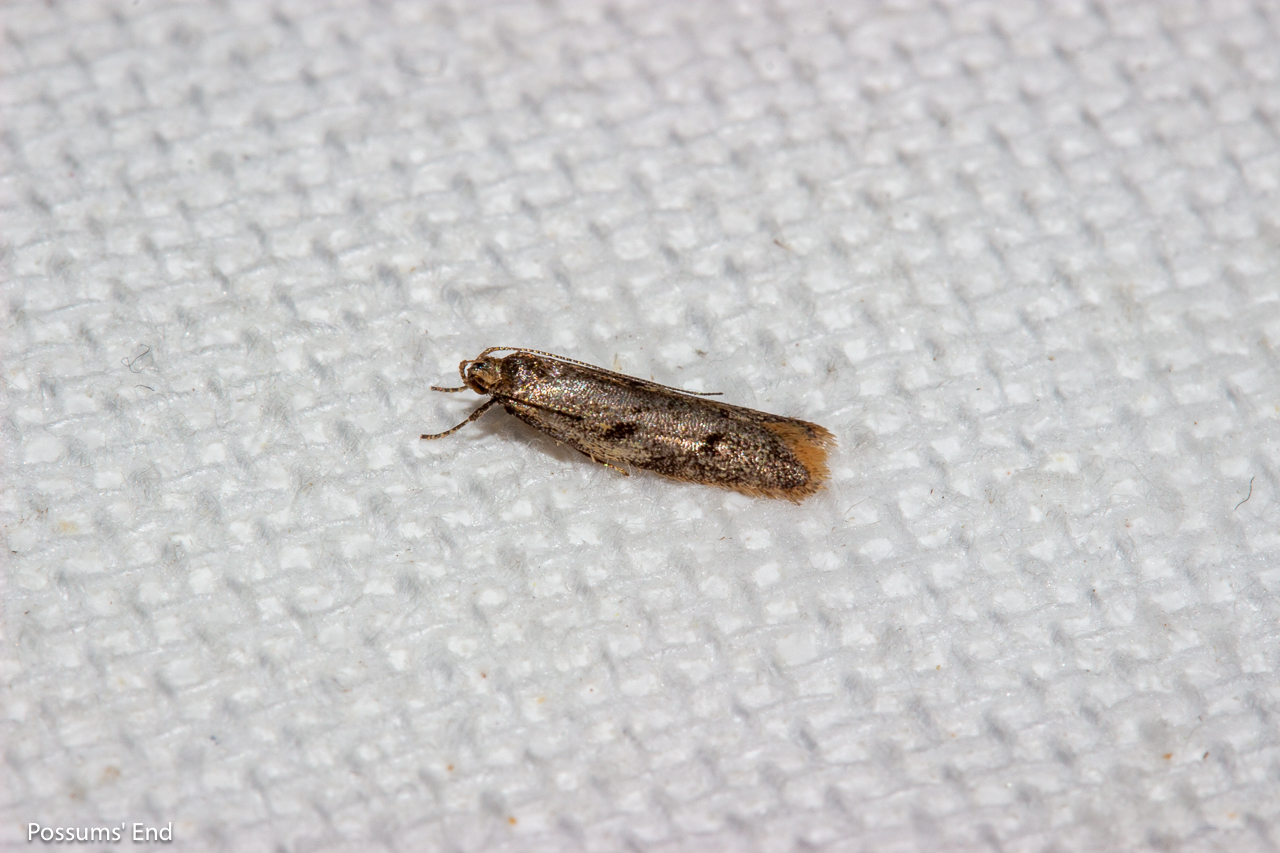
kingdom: Animalia
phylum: Arthropoda
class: Insecta
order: Lepidoptera
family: Oecophoridae
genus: Gymnobathra
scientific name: Gymnobathra tholodella
